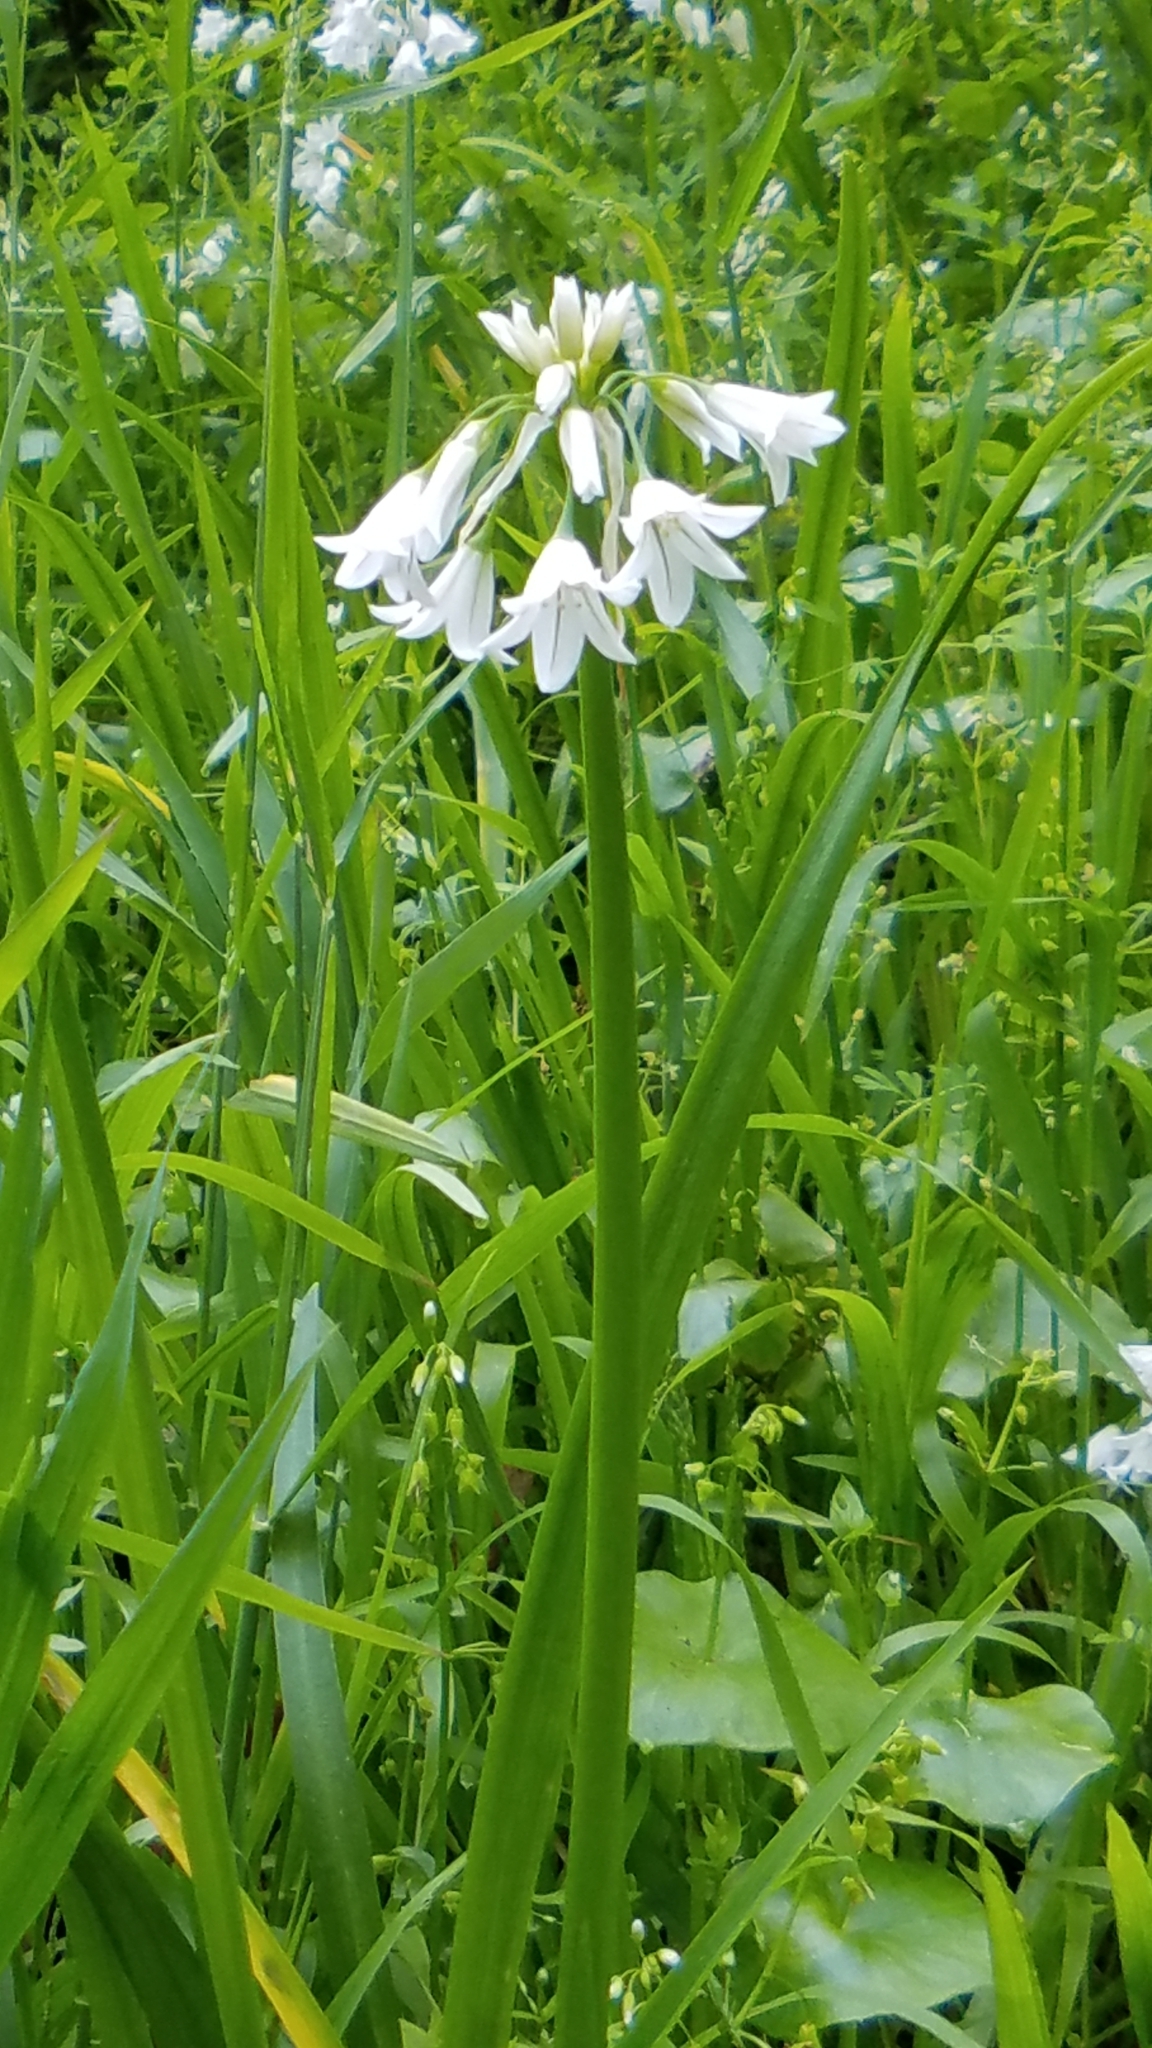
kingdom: Plantae
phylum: Tracheophyta
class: Liliopsida
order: Asparagales
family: Amaryllidaceae
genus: Allium
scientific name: Allium triquetrum
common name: Three-cornered garlic
